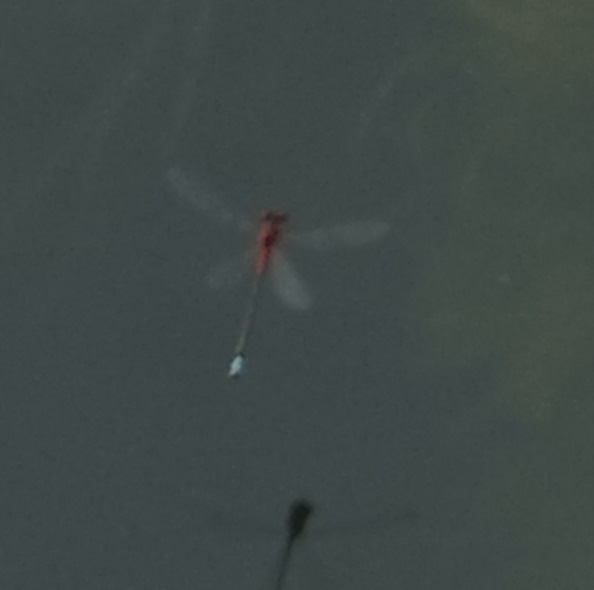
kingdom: Animalia
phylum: Arthropoda
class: Insecta
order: Odonata
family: Coenagrionidae
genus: Xanthagrion
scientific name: Xanthagrion erythroneurum
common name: Red and blue damsel
